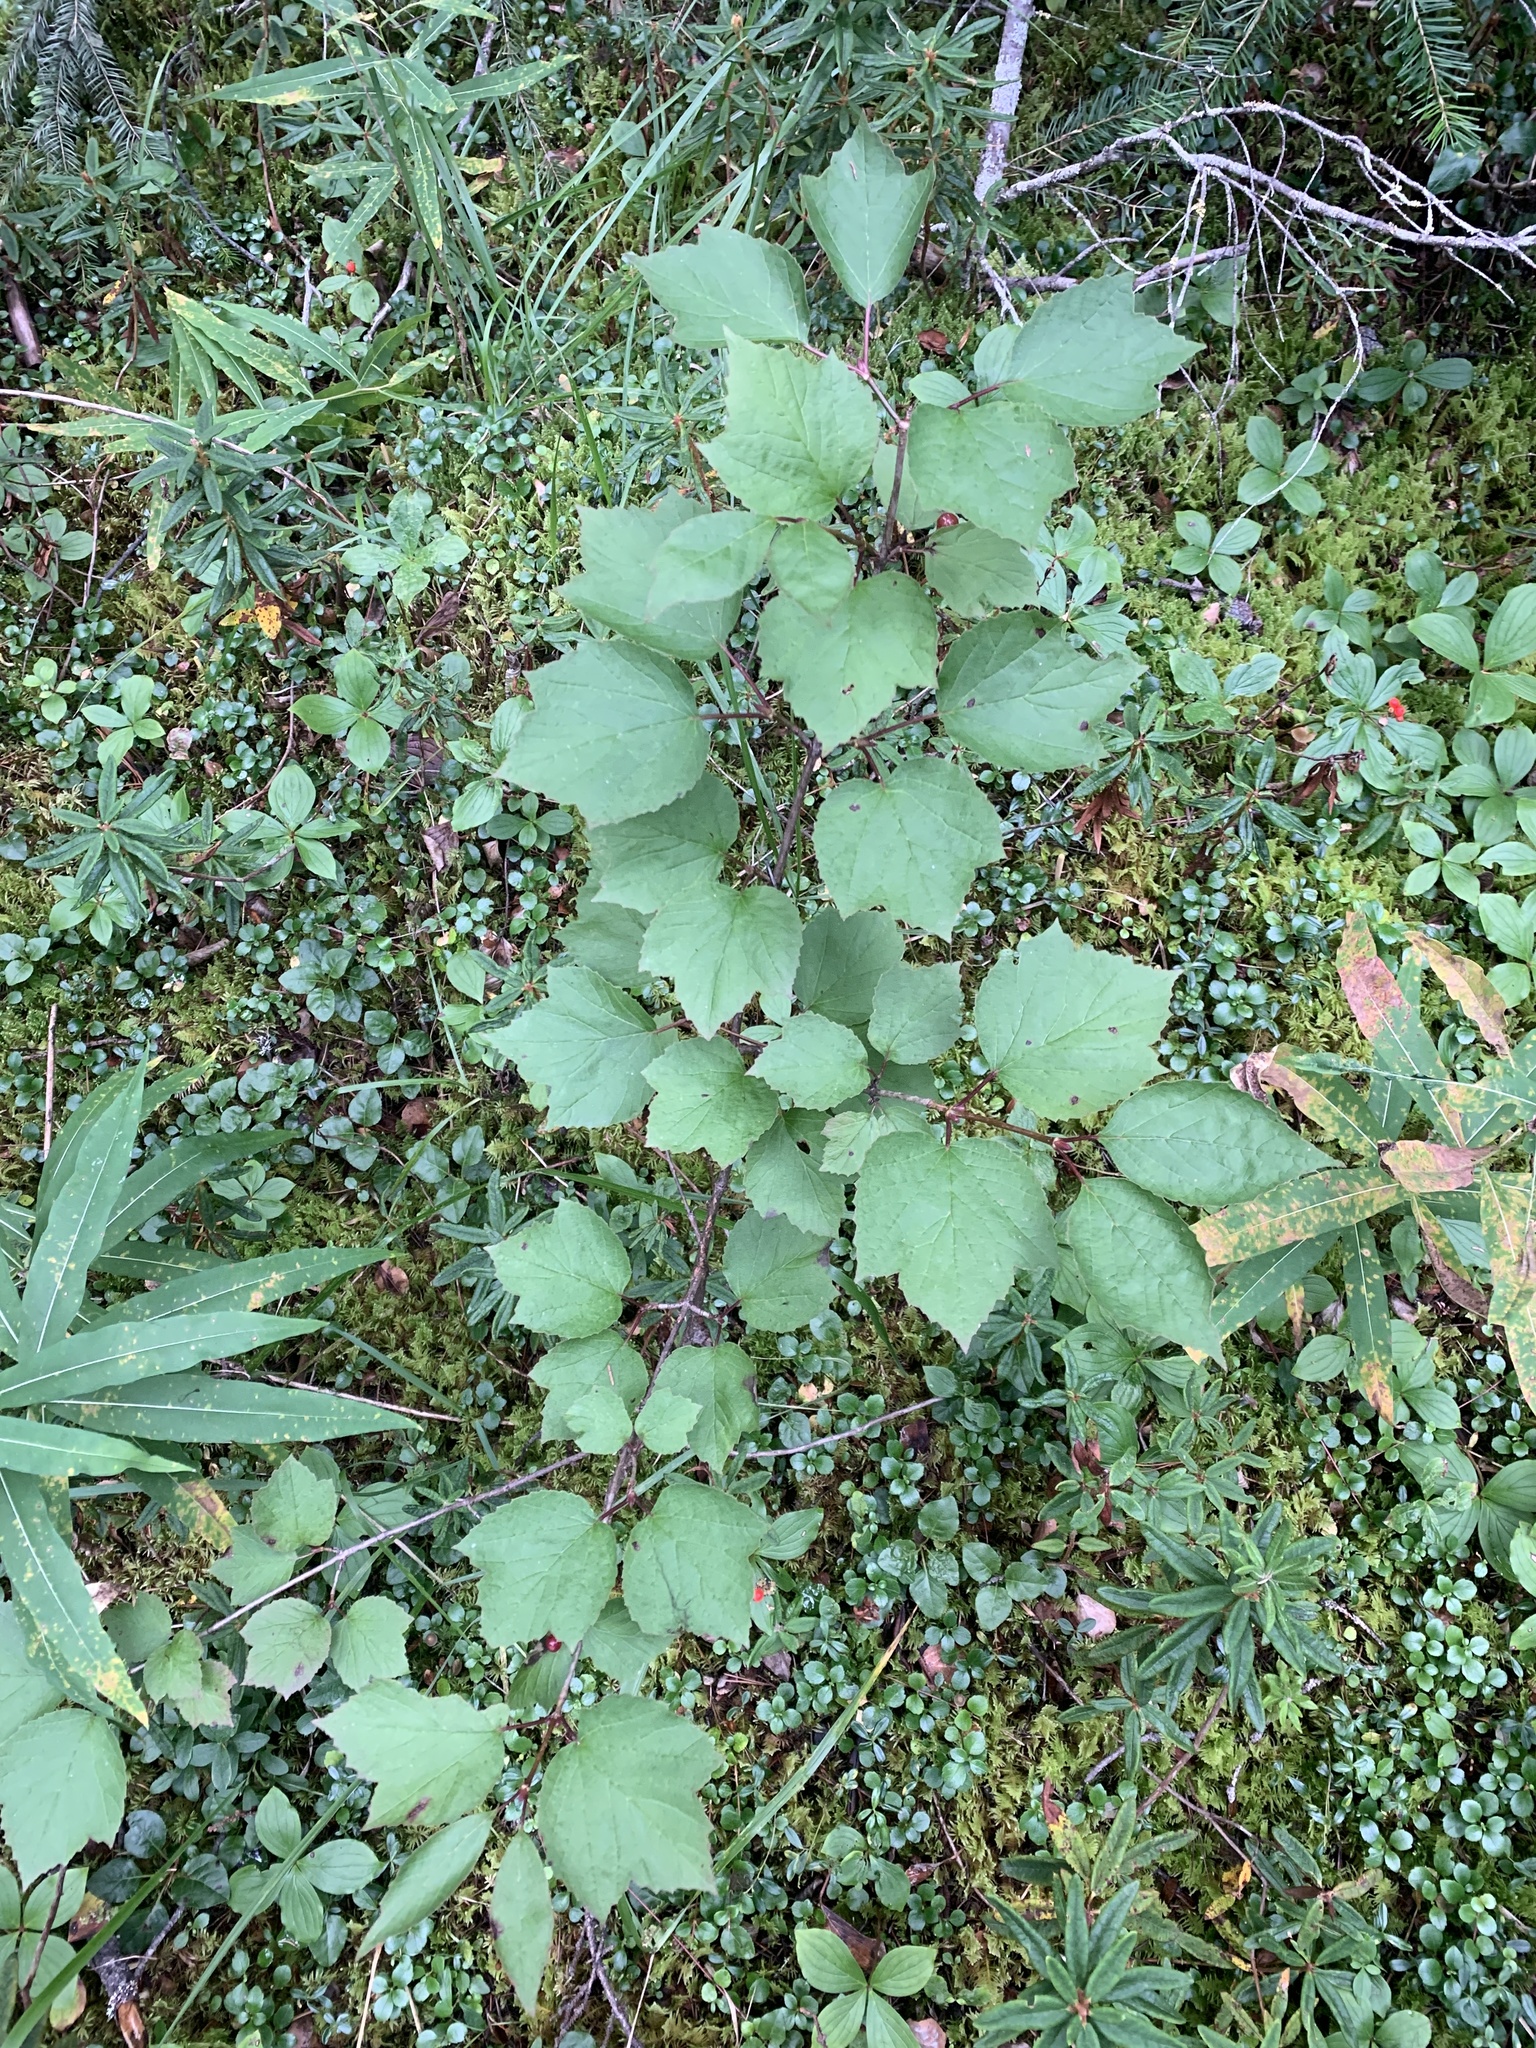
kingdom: Plantae
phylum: Tracheophyta
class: Magnoliopsida
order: Dipsacales
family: Viburnaceae
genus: Viburnum
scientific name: Viburnum edule
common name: Mooseberry
